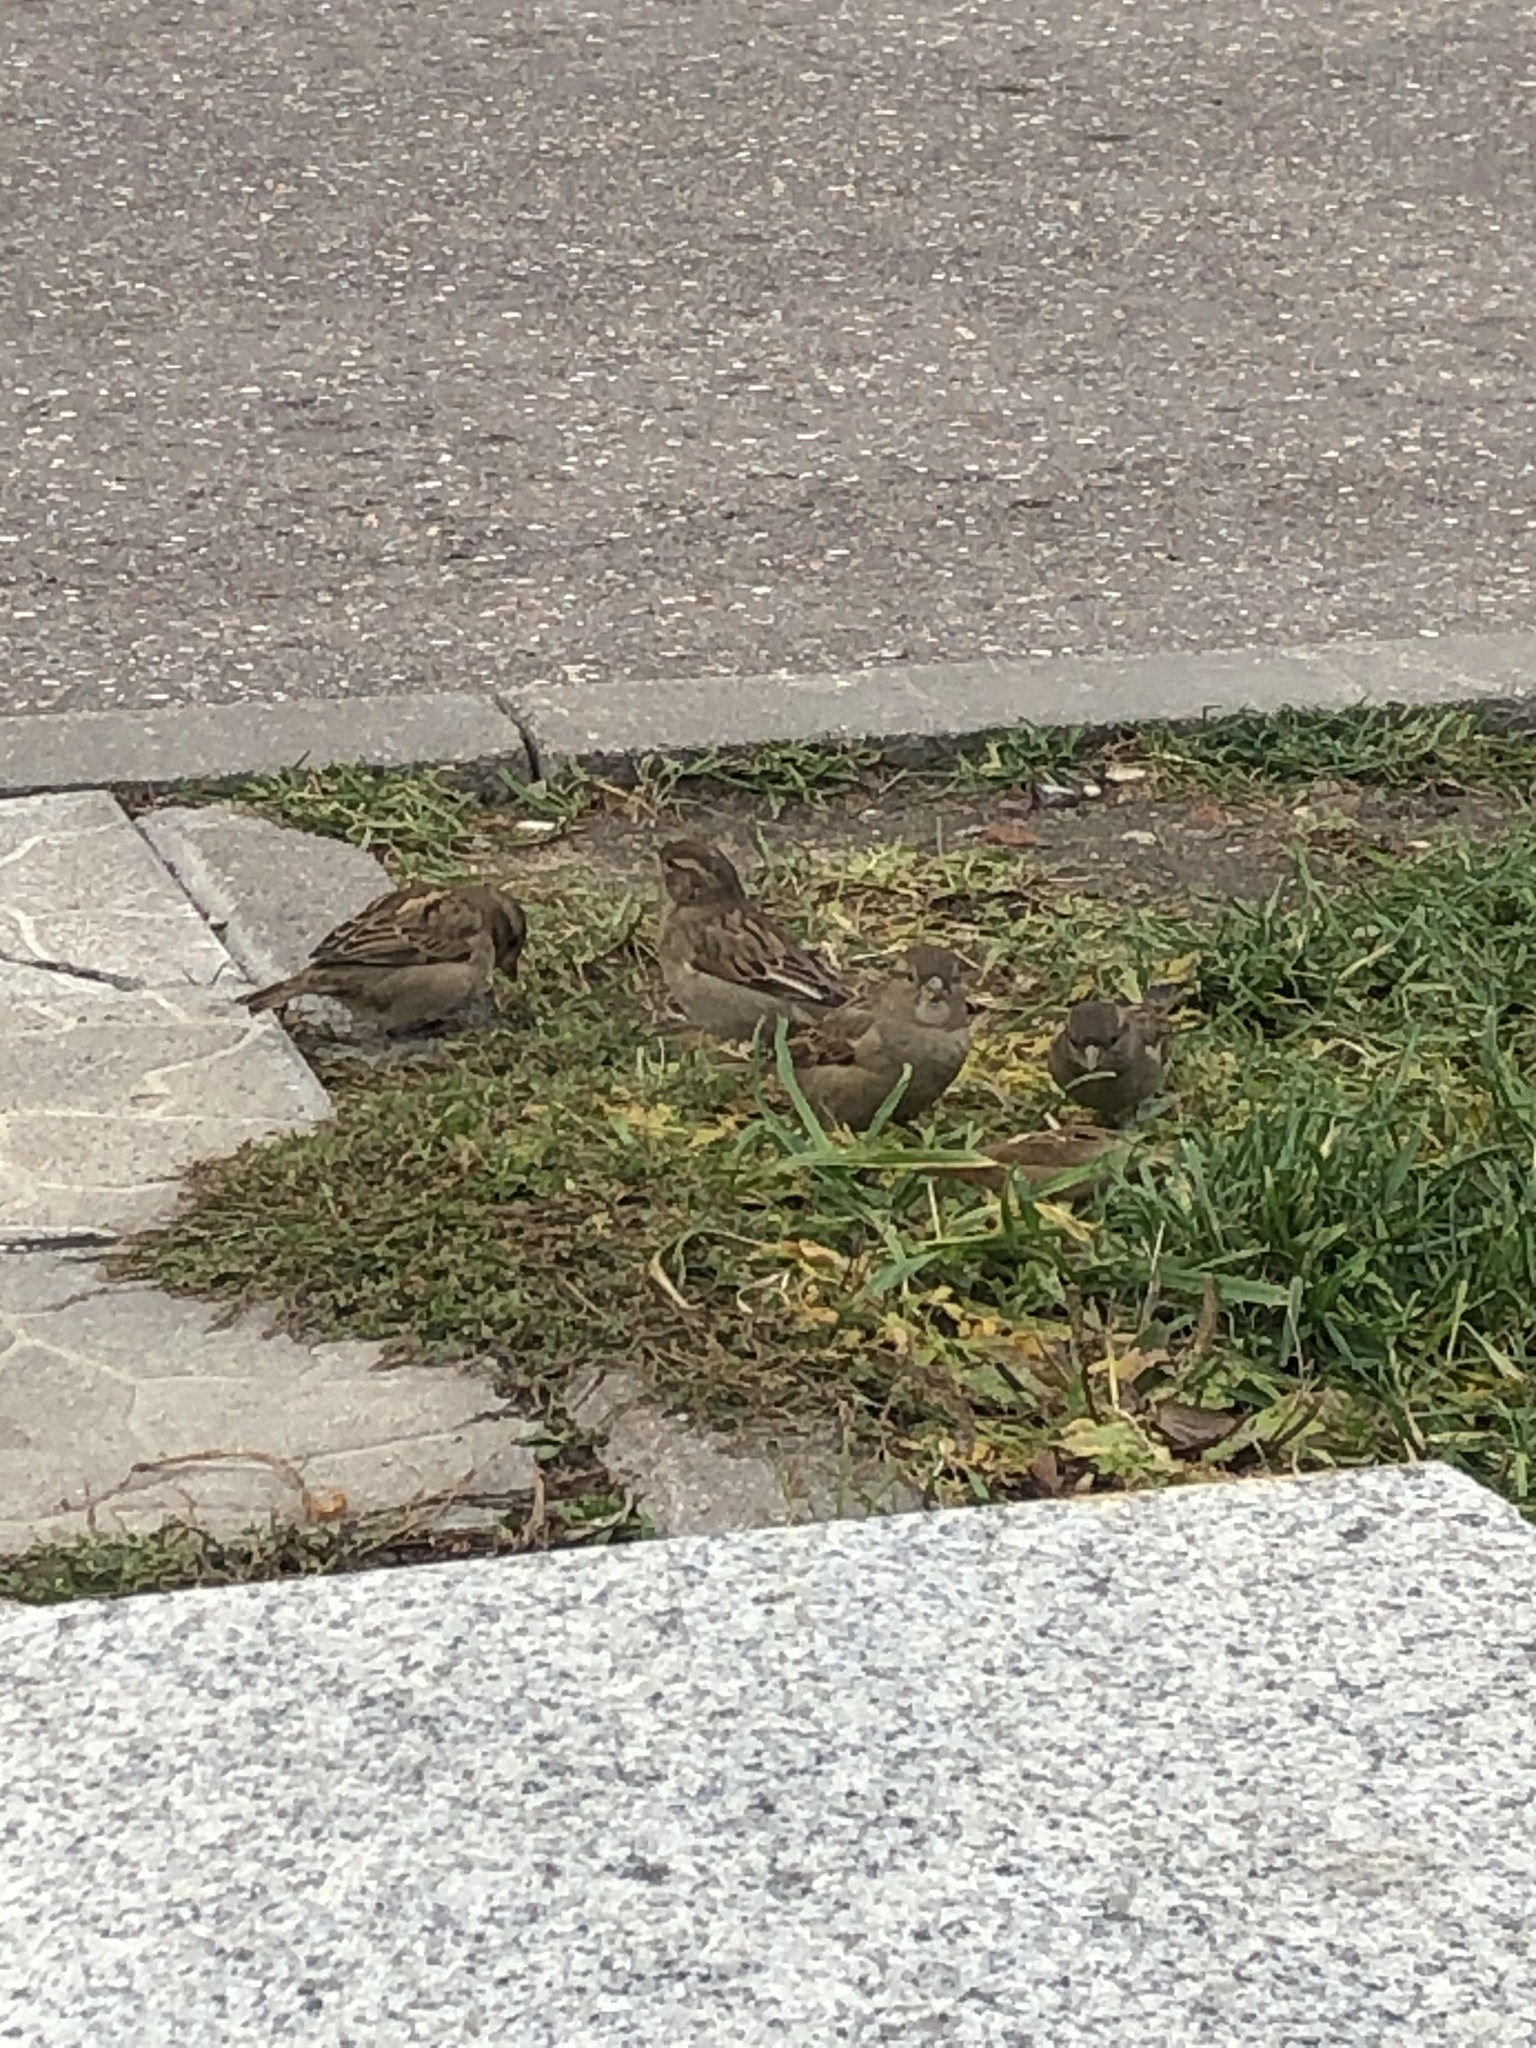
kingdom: Animalia
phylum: Chordata
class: Aves
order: Passeriformes
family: Passeridae
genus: Passer
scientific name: Passer domesticus
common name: House sparrow
